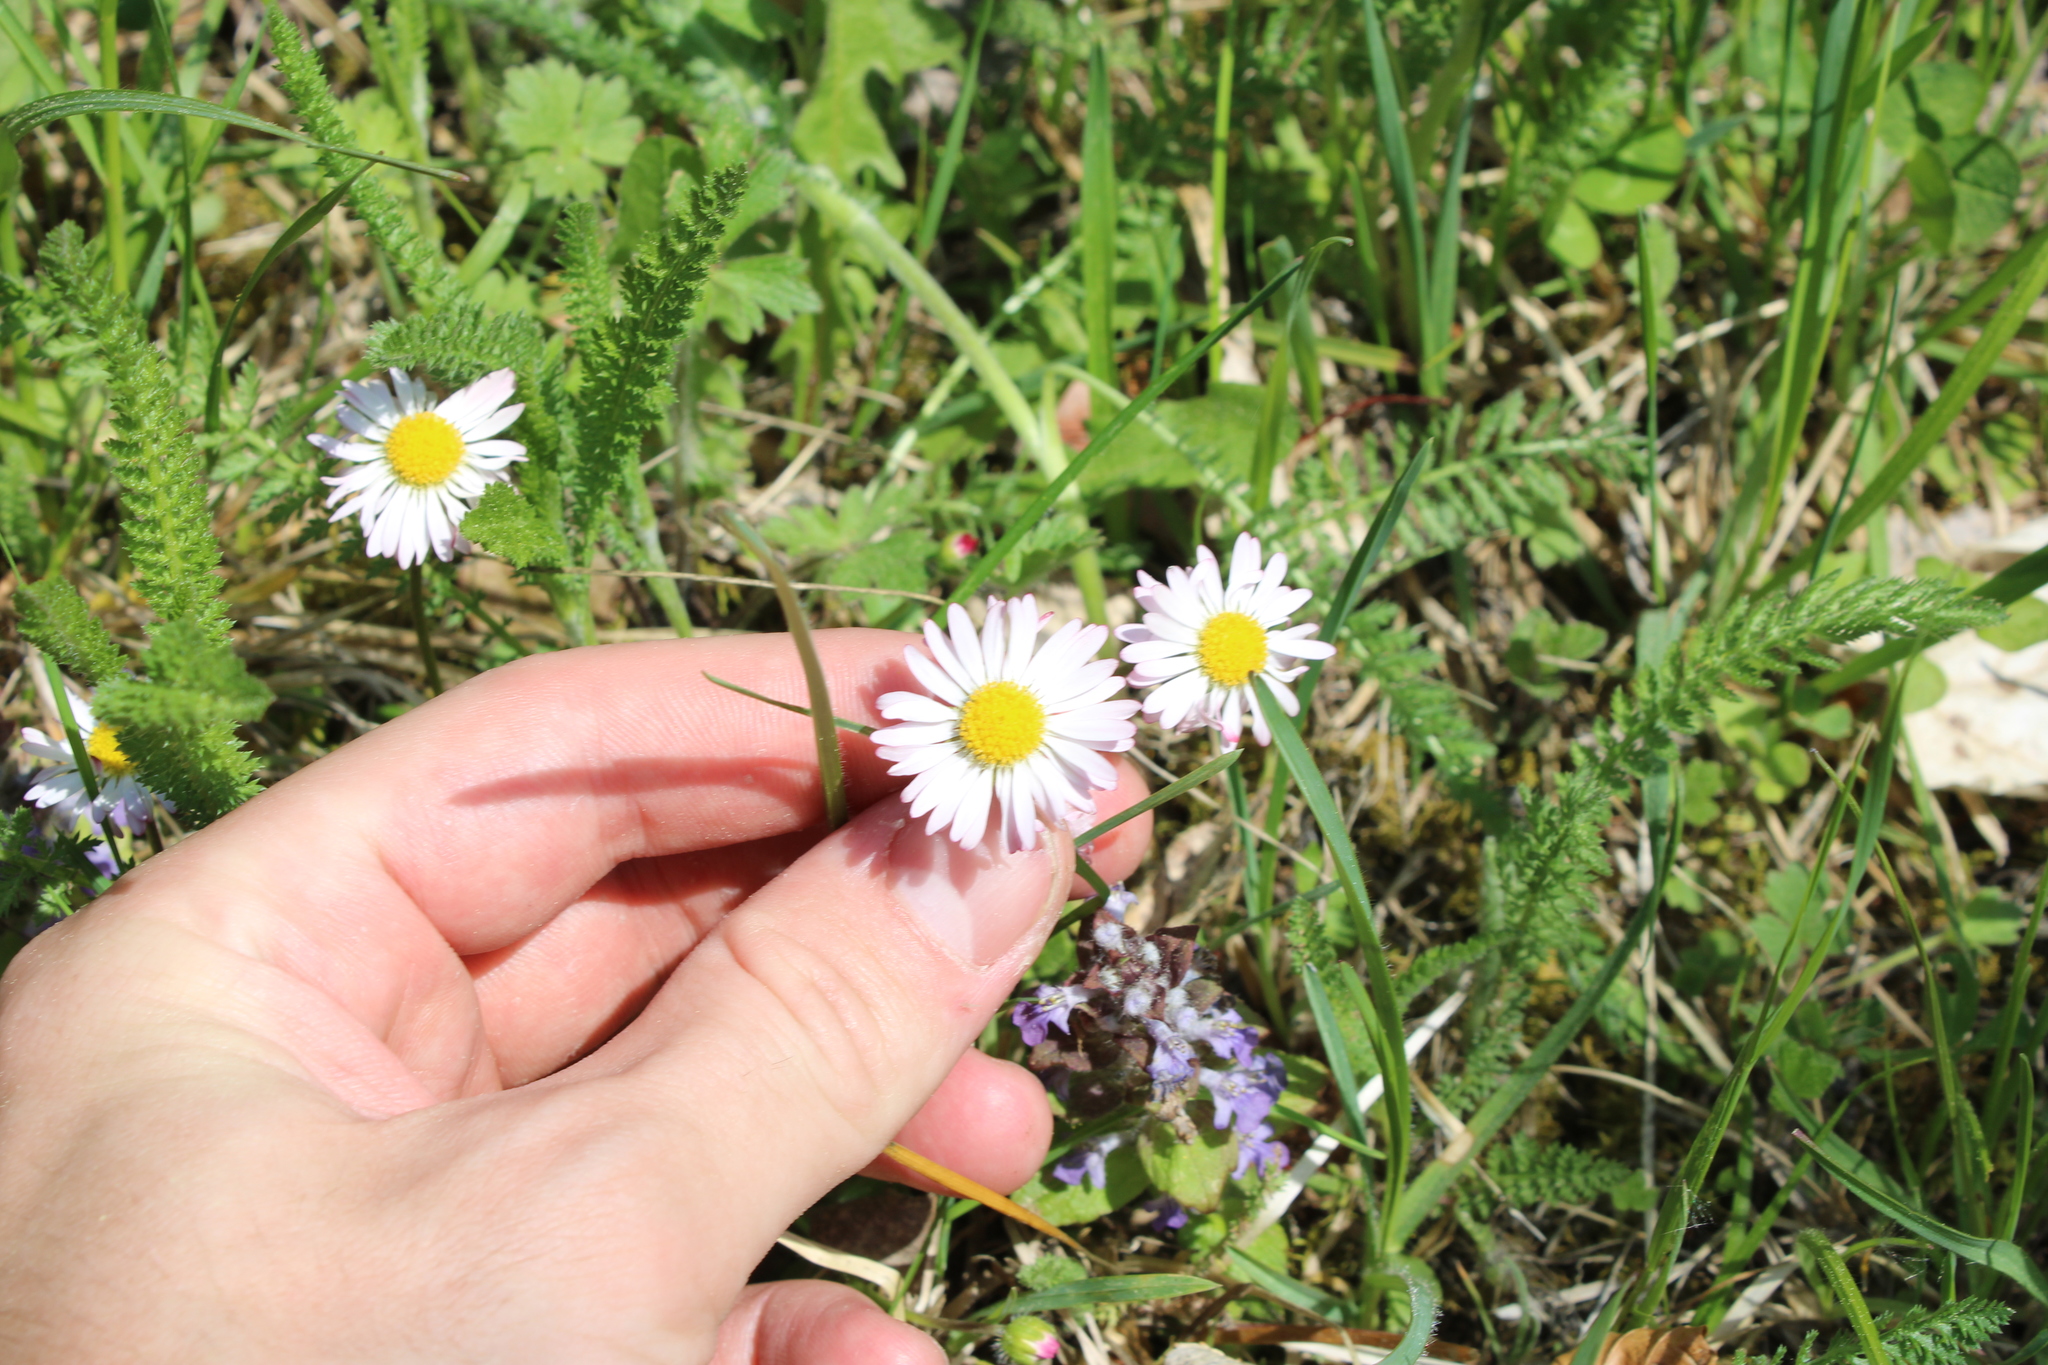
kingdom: Plantae
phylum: Tracheophyta
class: Magnoliopsida
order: Asterales
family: Asteraceae
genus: Bellis
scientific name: Bellis perennis
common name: Lawndaisy
